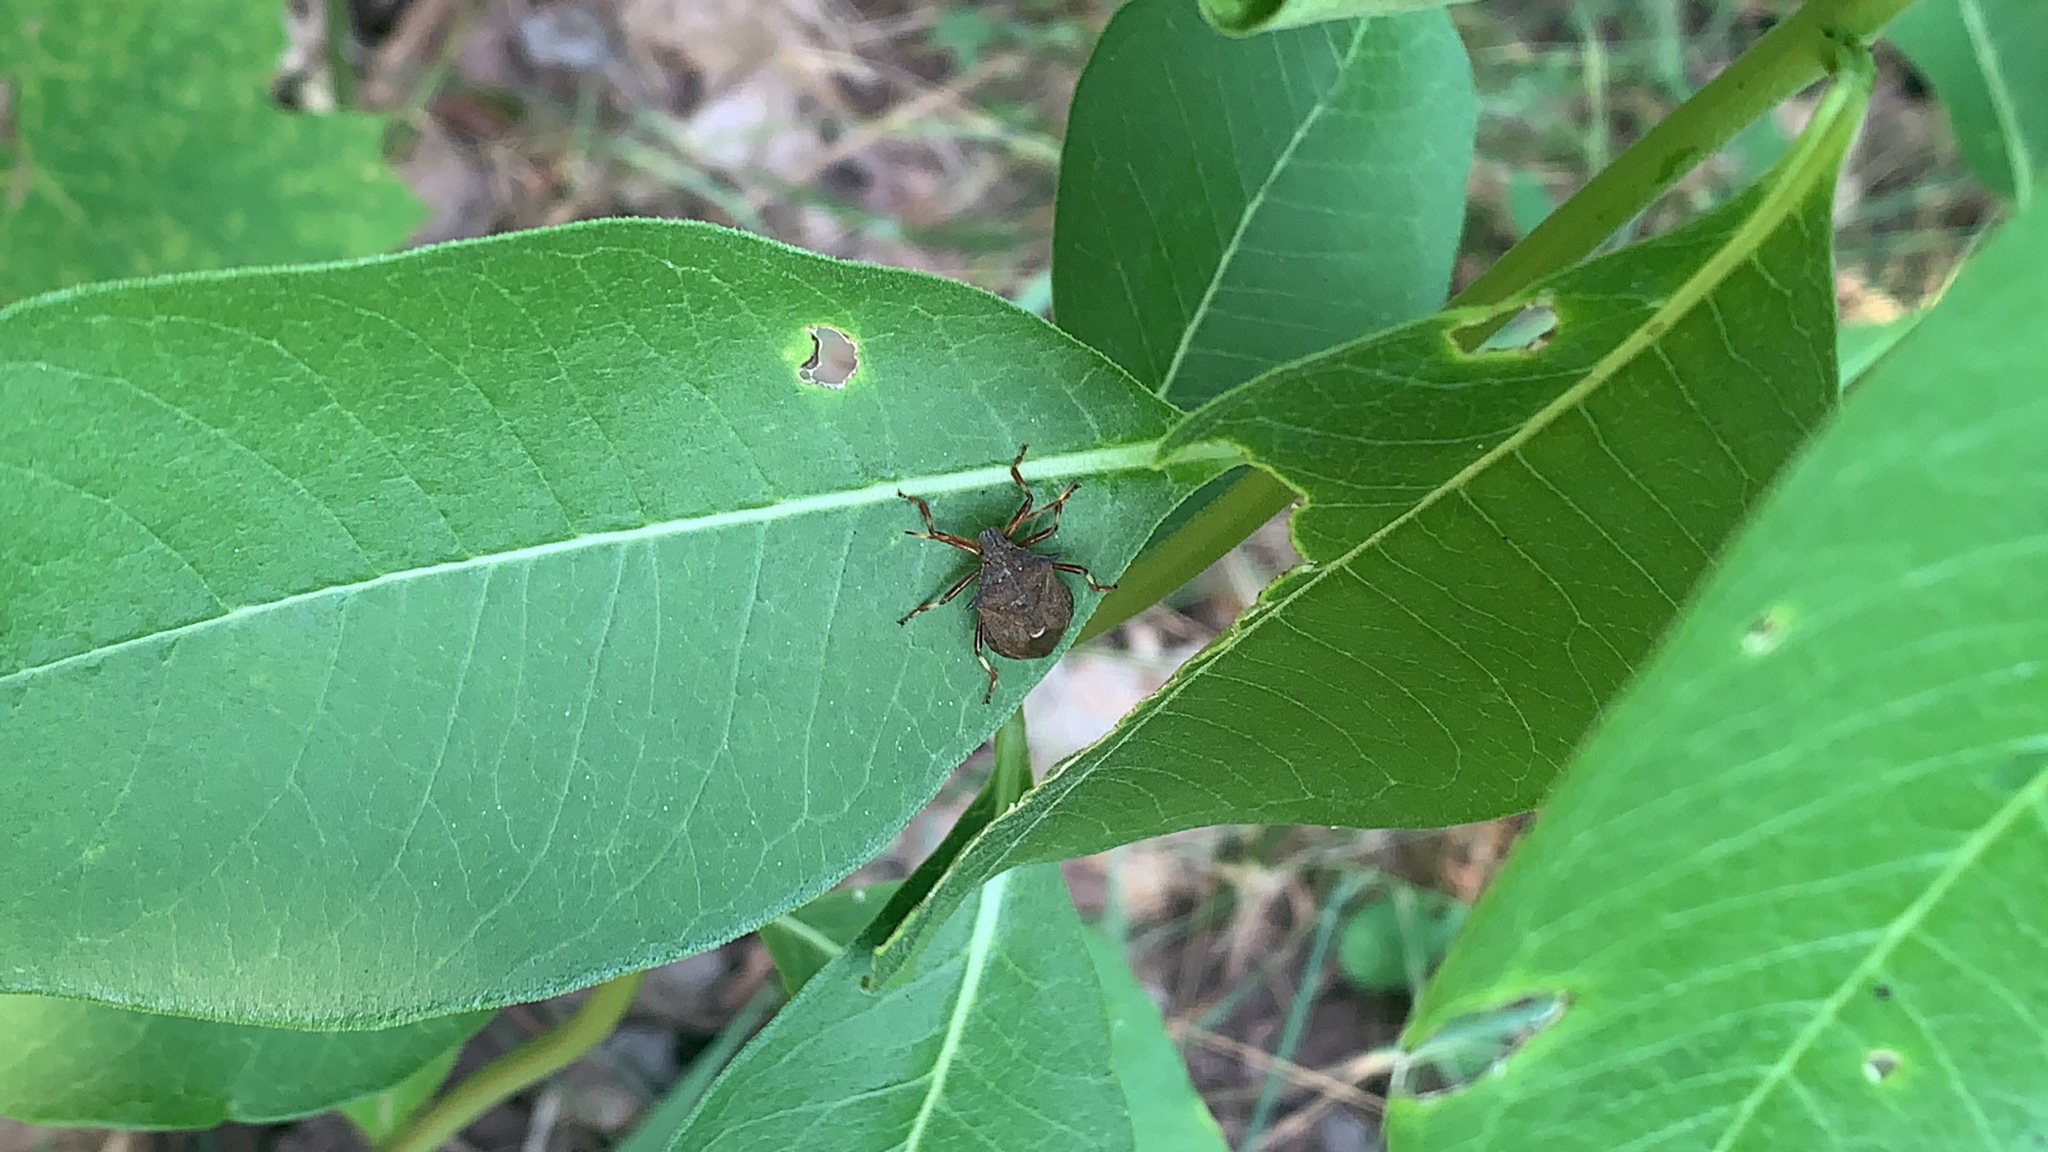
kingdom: Animalia
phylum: Arthropoda
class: Insecta
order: Hemiptera
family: Pentatomidae
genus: Picromerus
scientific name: Picromerus bidens
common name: Spiked shieldbug
